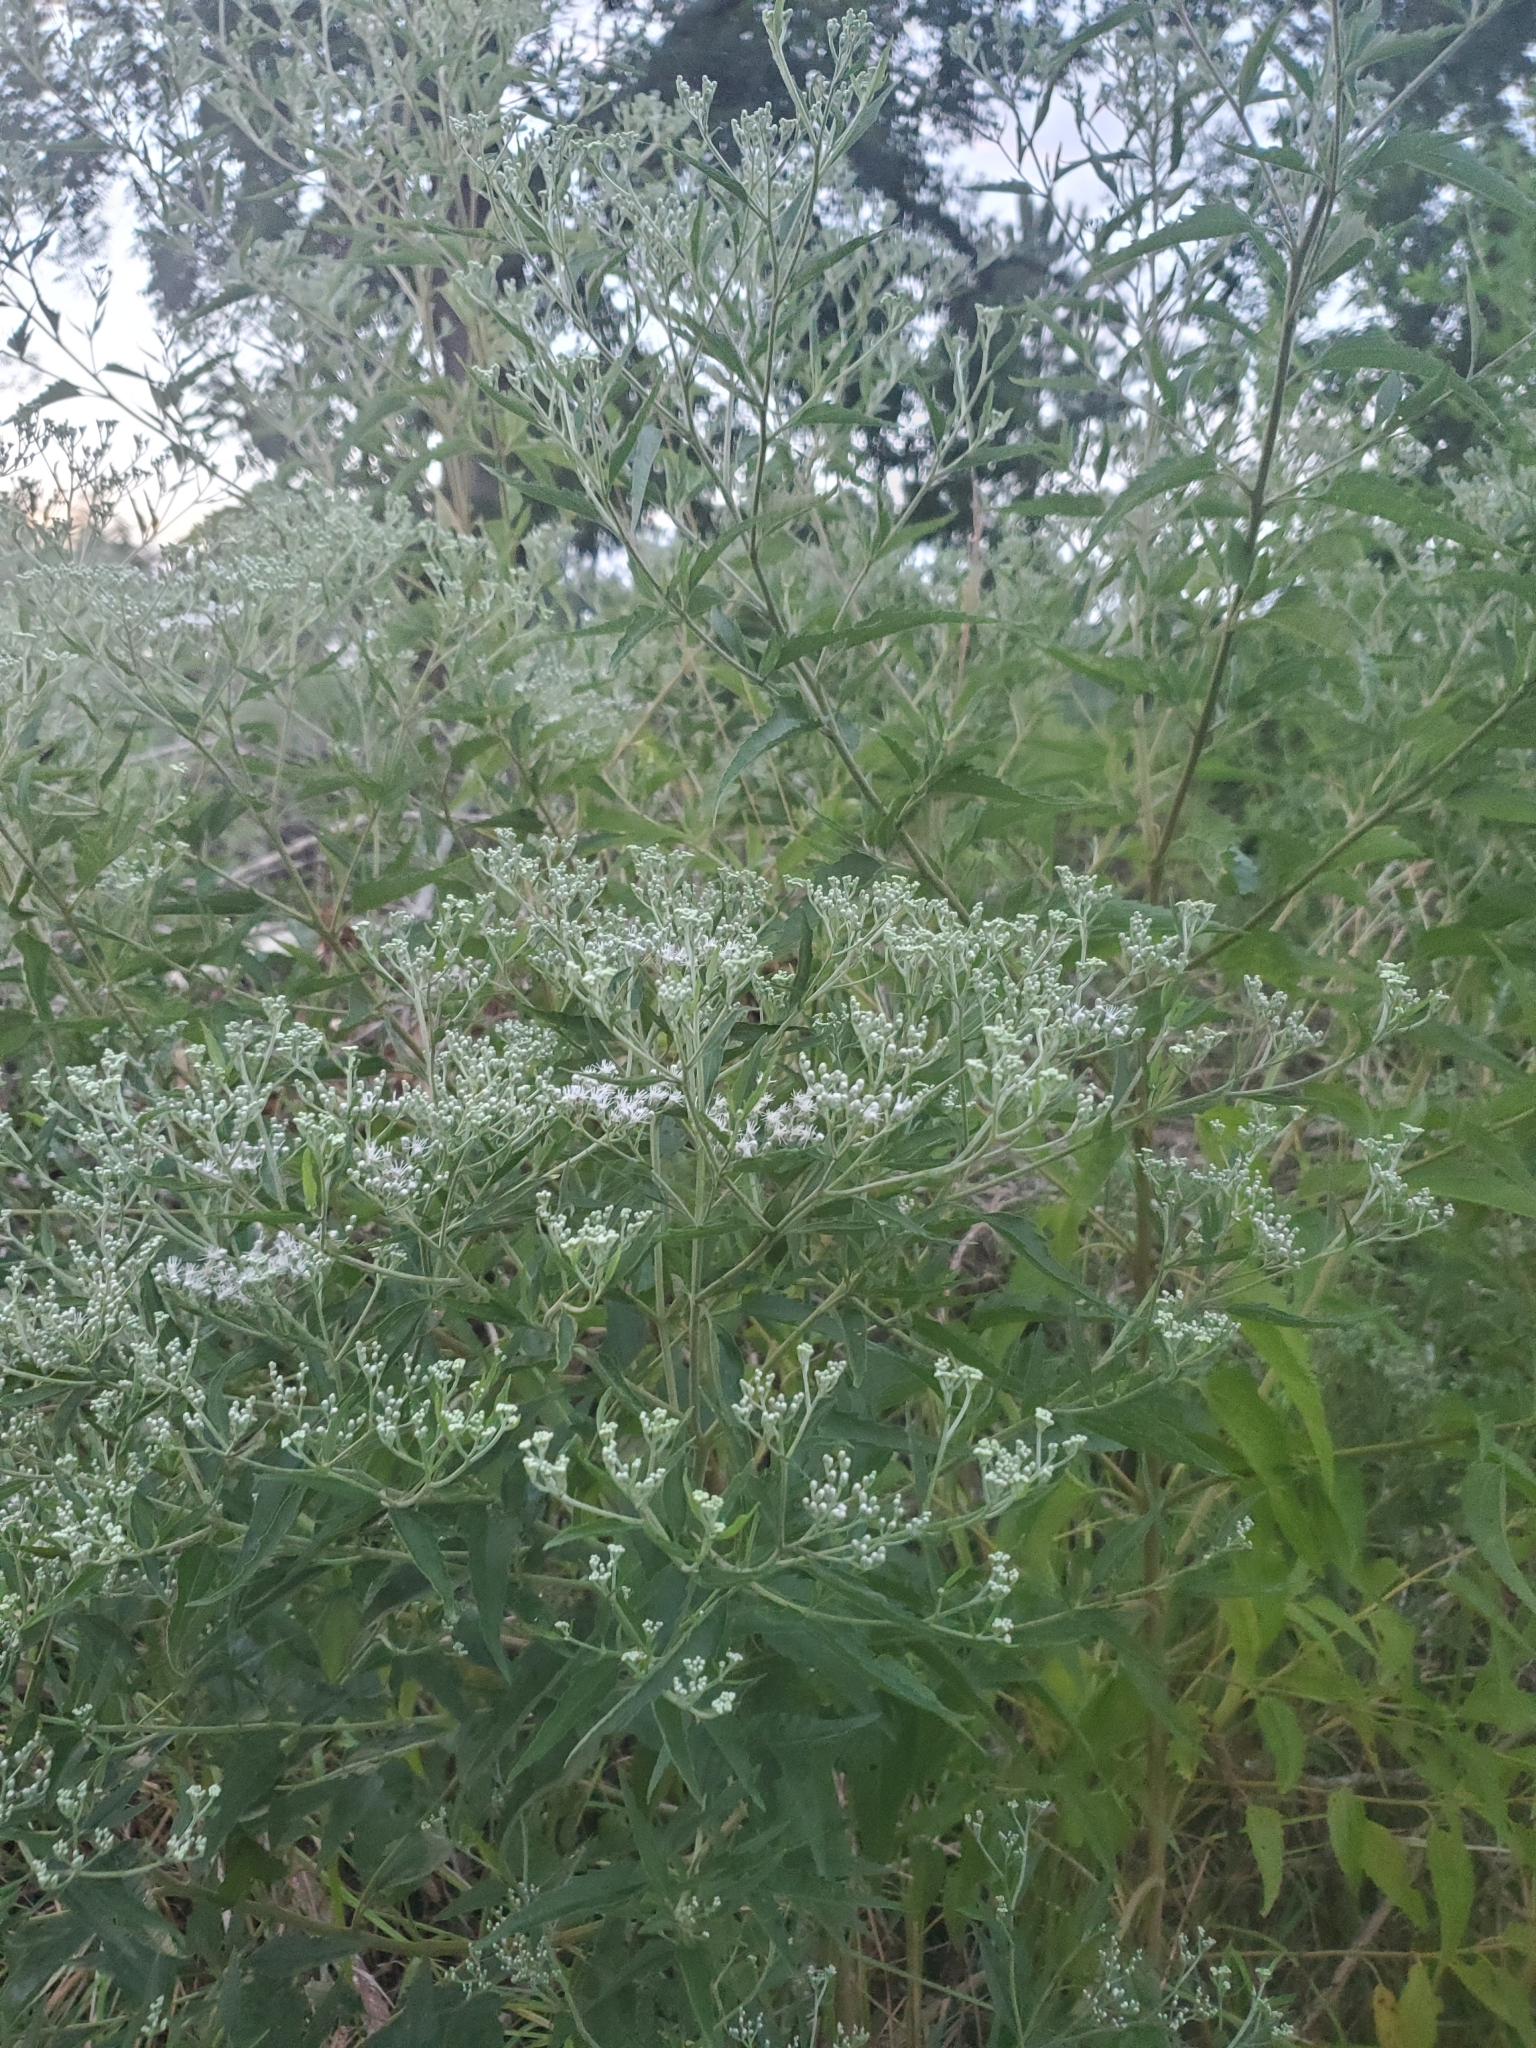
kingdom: Plantae
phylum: Tracheophyta
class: Magnoliopsida
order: Asterales
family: Asteraceae
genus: Eupatorium
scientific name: Eupatorium serotinum
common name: Late boneset
